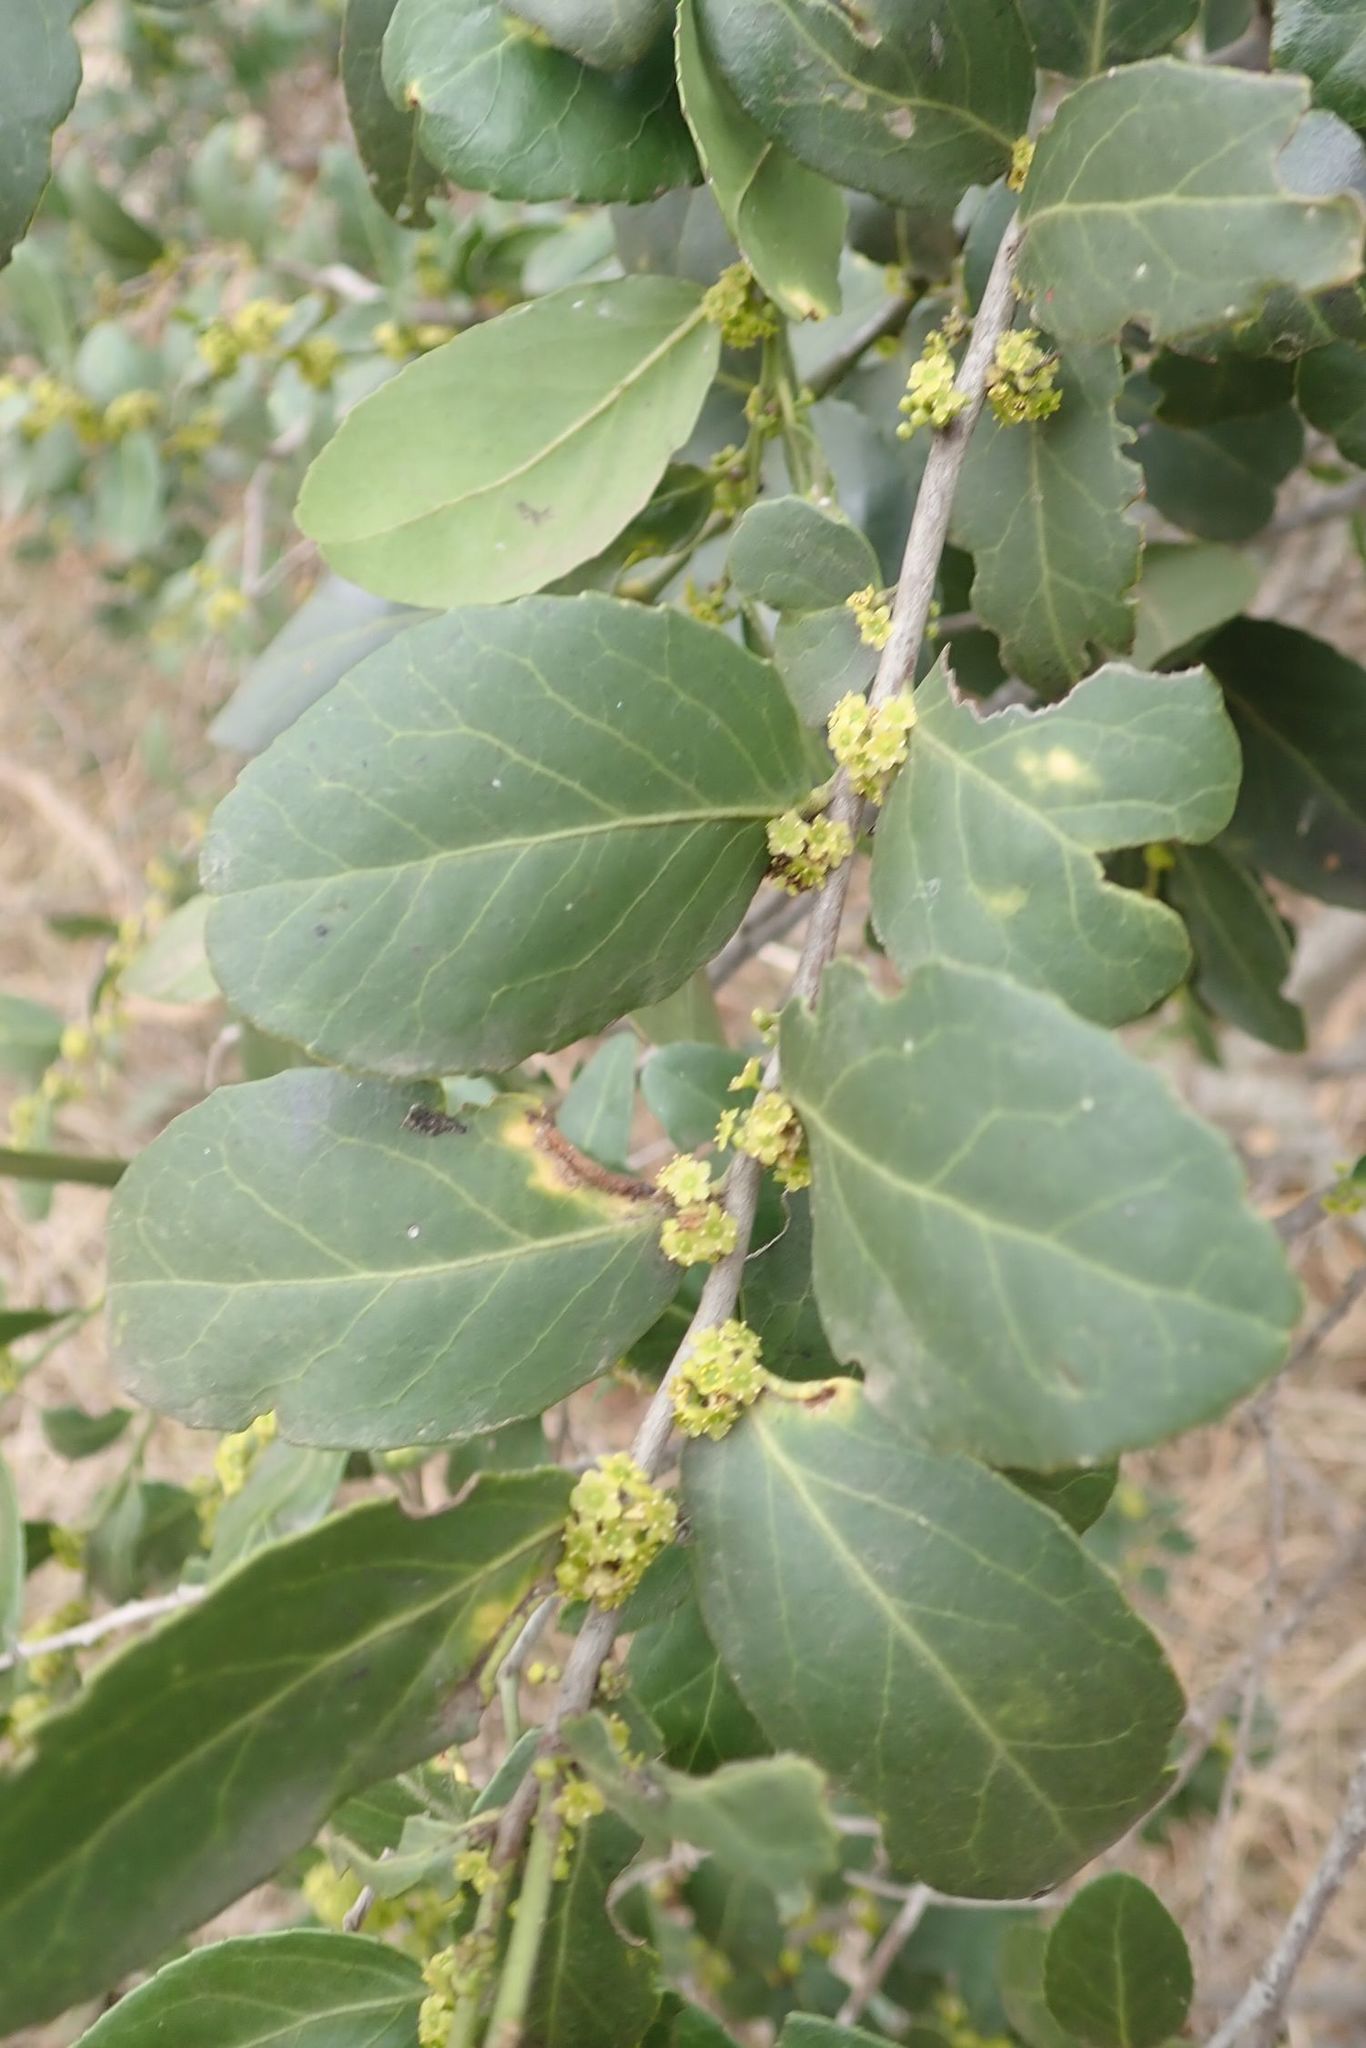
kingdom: Plantae
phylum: Tracheophyta
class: Magnoliopsida
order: Celastrales
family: Celastraceae
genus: Mystroxylon
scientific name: Mystroxylon aethiopicum
